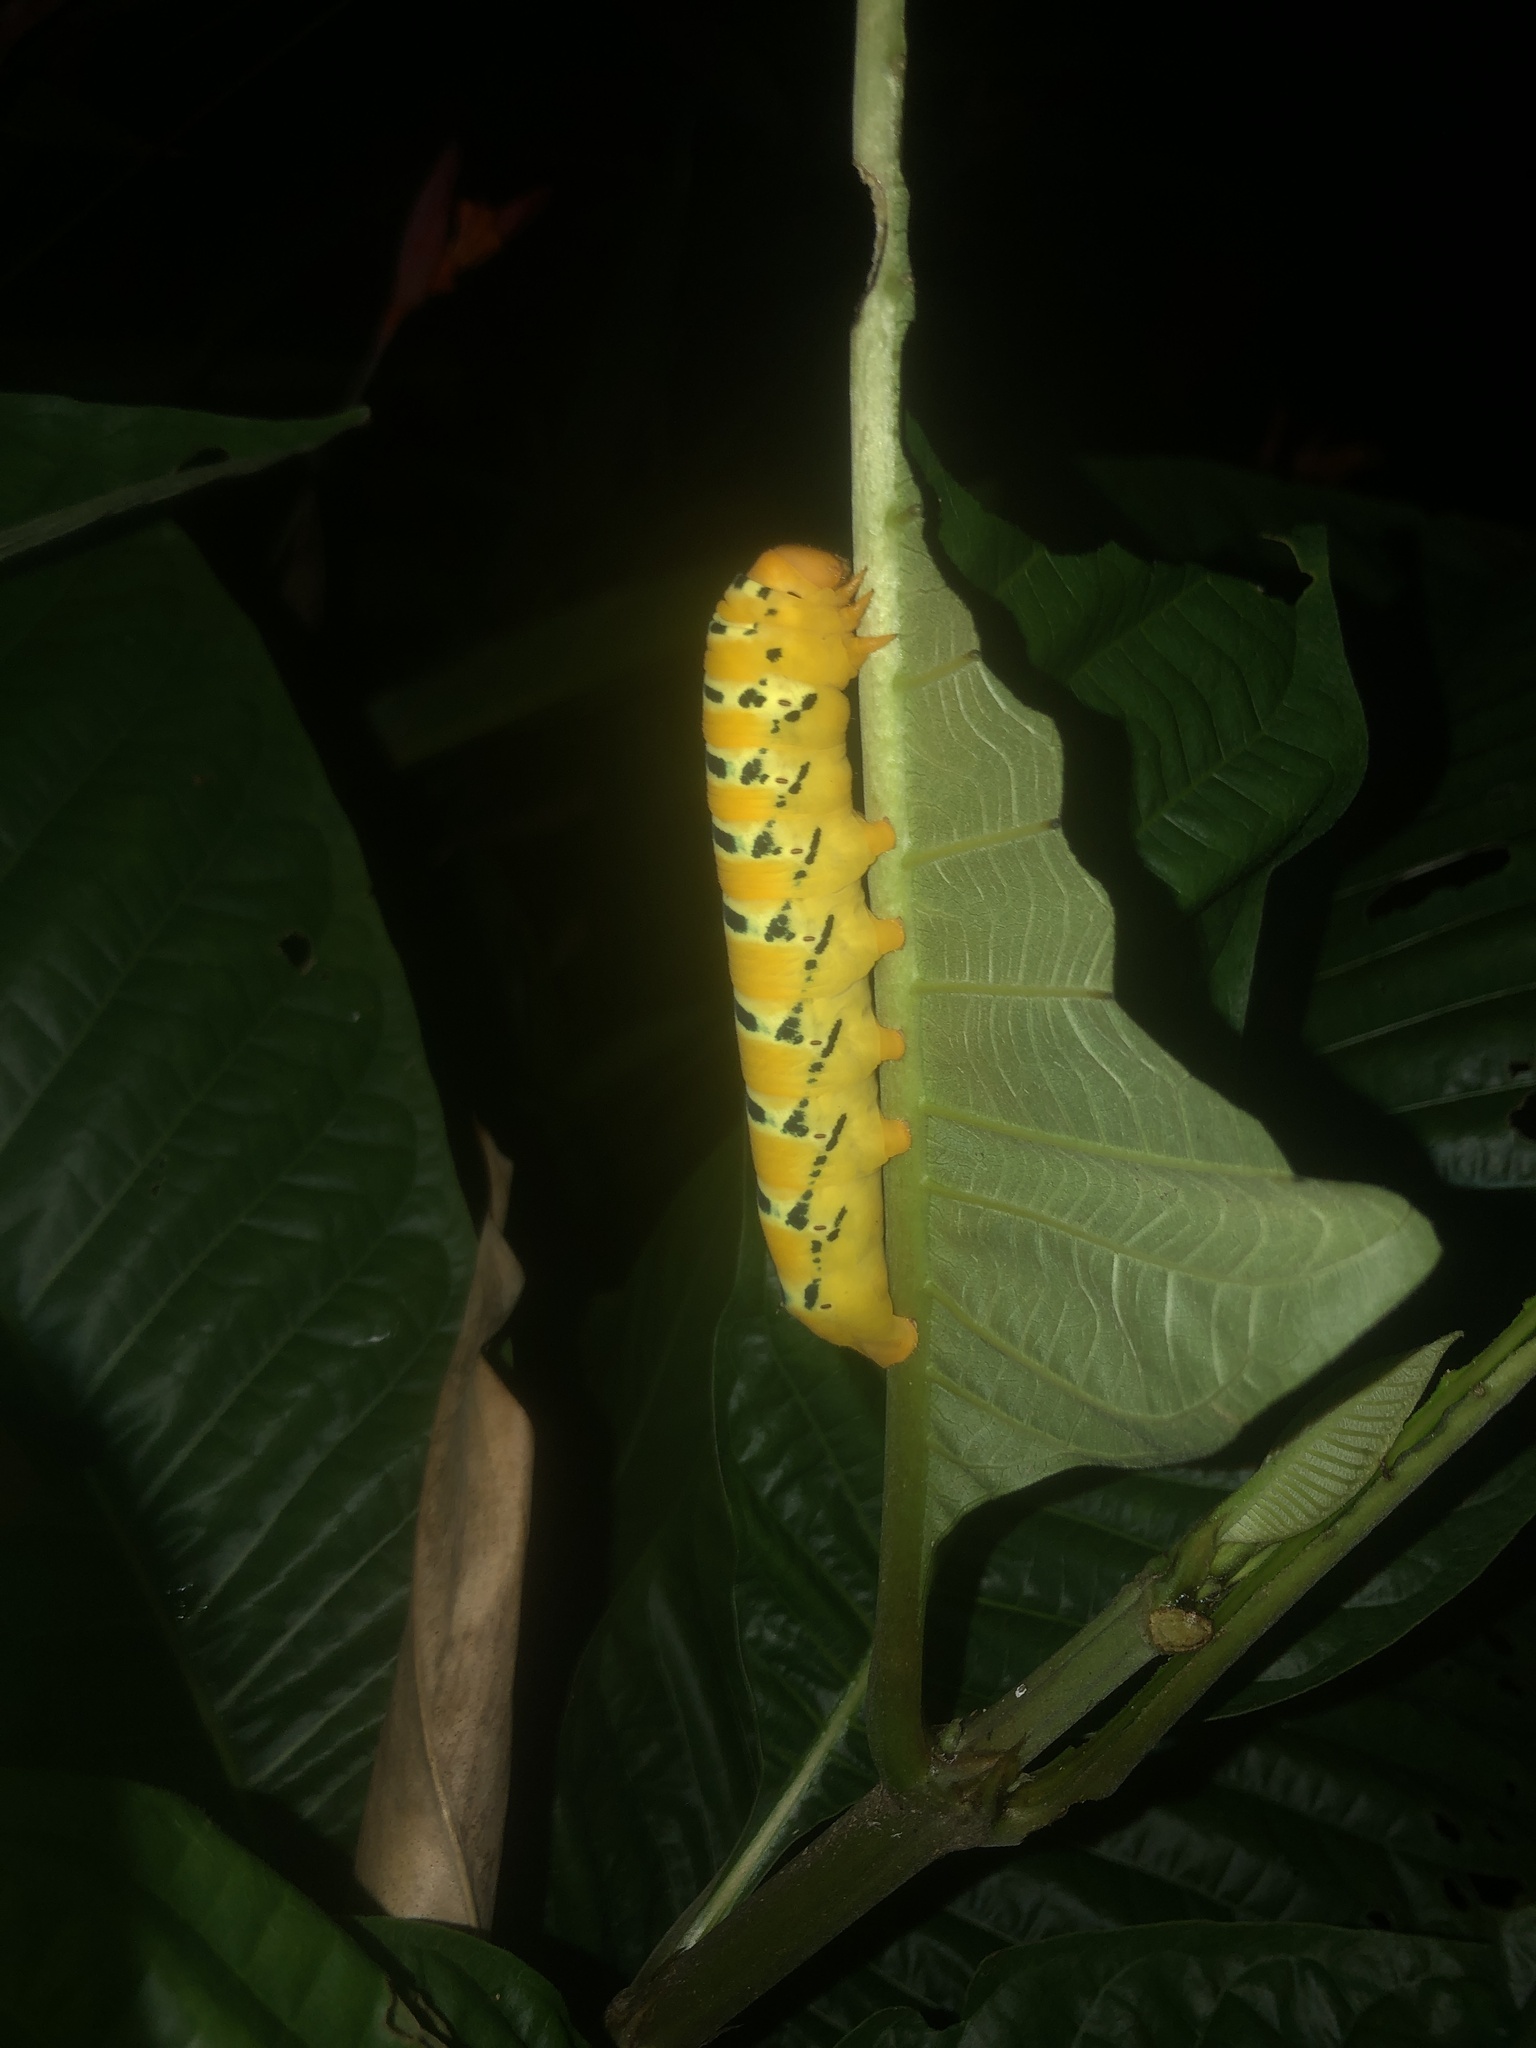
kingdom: Animalia
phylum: Arthropoda
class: Insecta
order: Lepidoptera
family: Sphingidae
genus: Oryba
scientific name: Oryba kadeni
